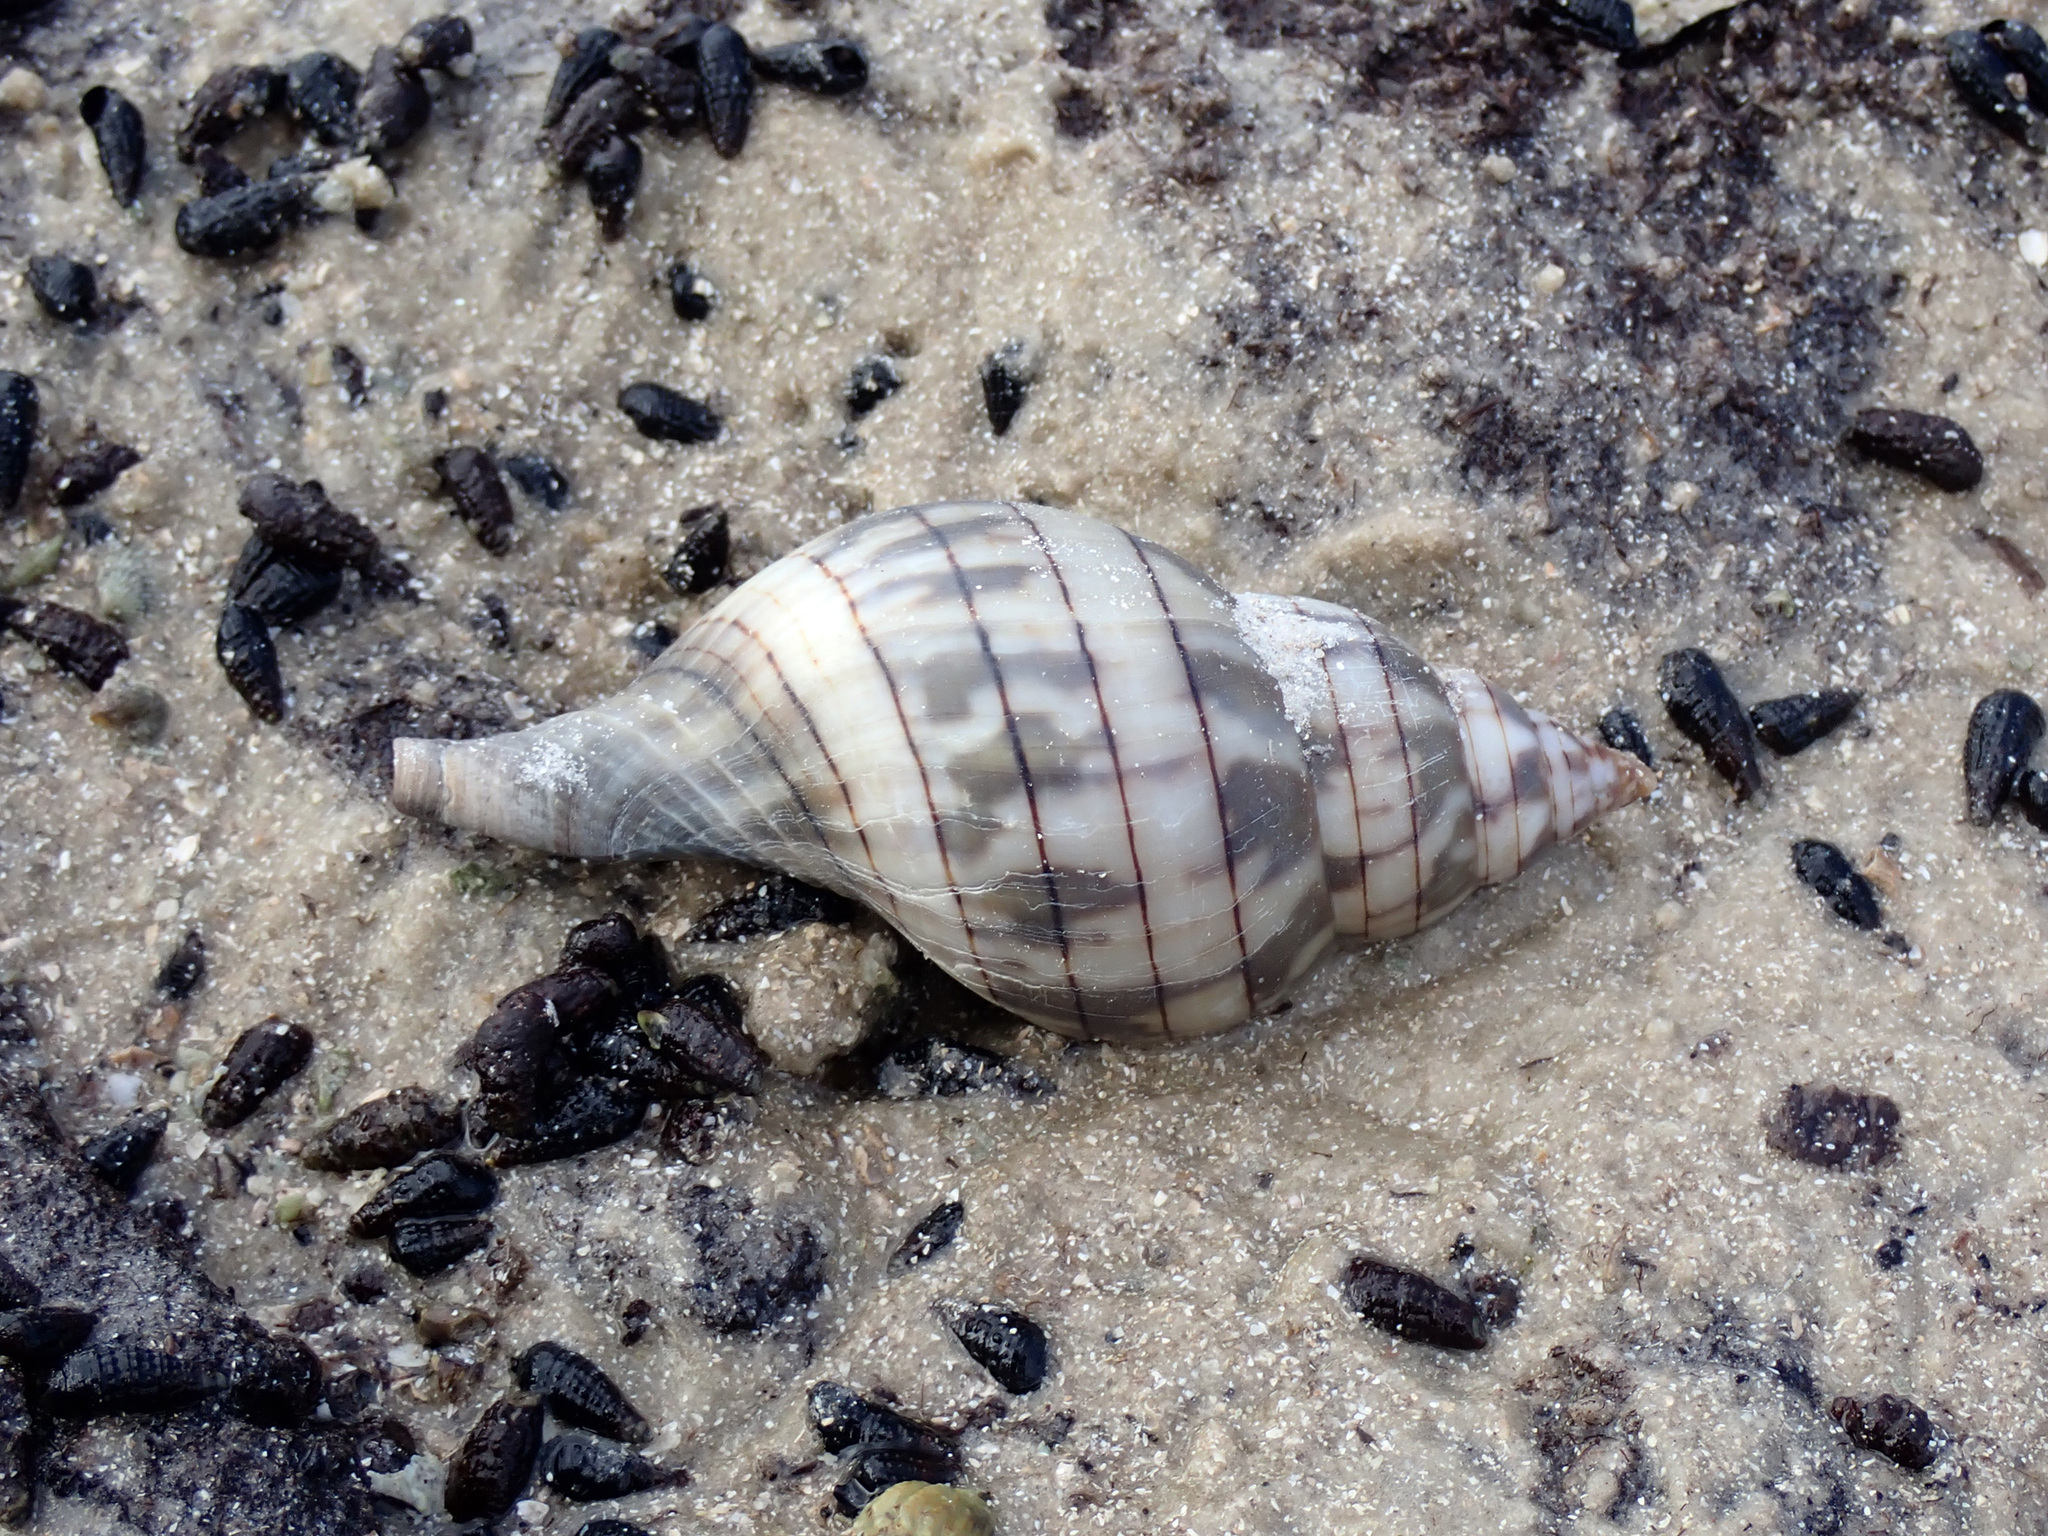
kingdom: Animalia
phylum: Mollusca
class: Gastropoda
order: Neogastropoda
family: Fasciolariidae
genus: Cinctura
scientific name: Cinctura hunteria
